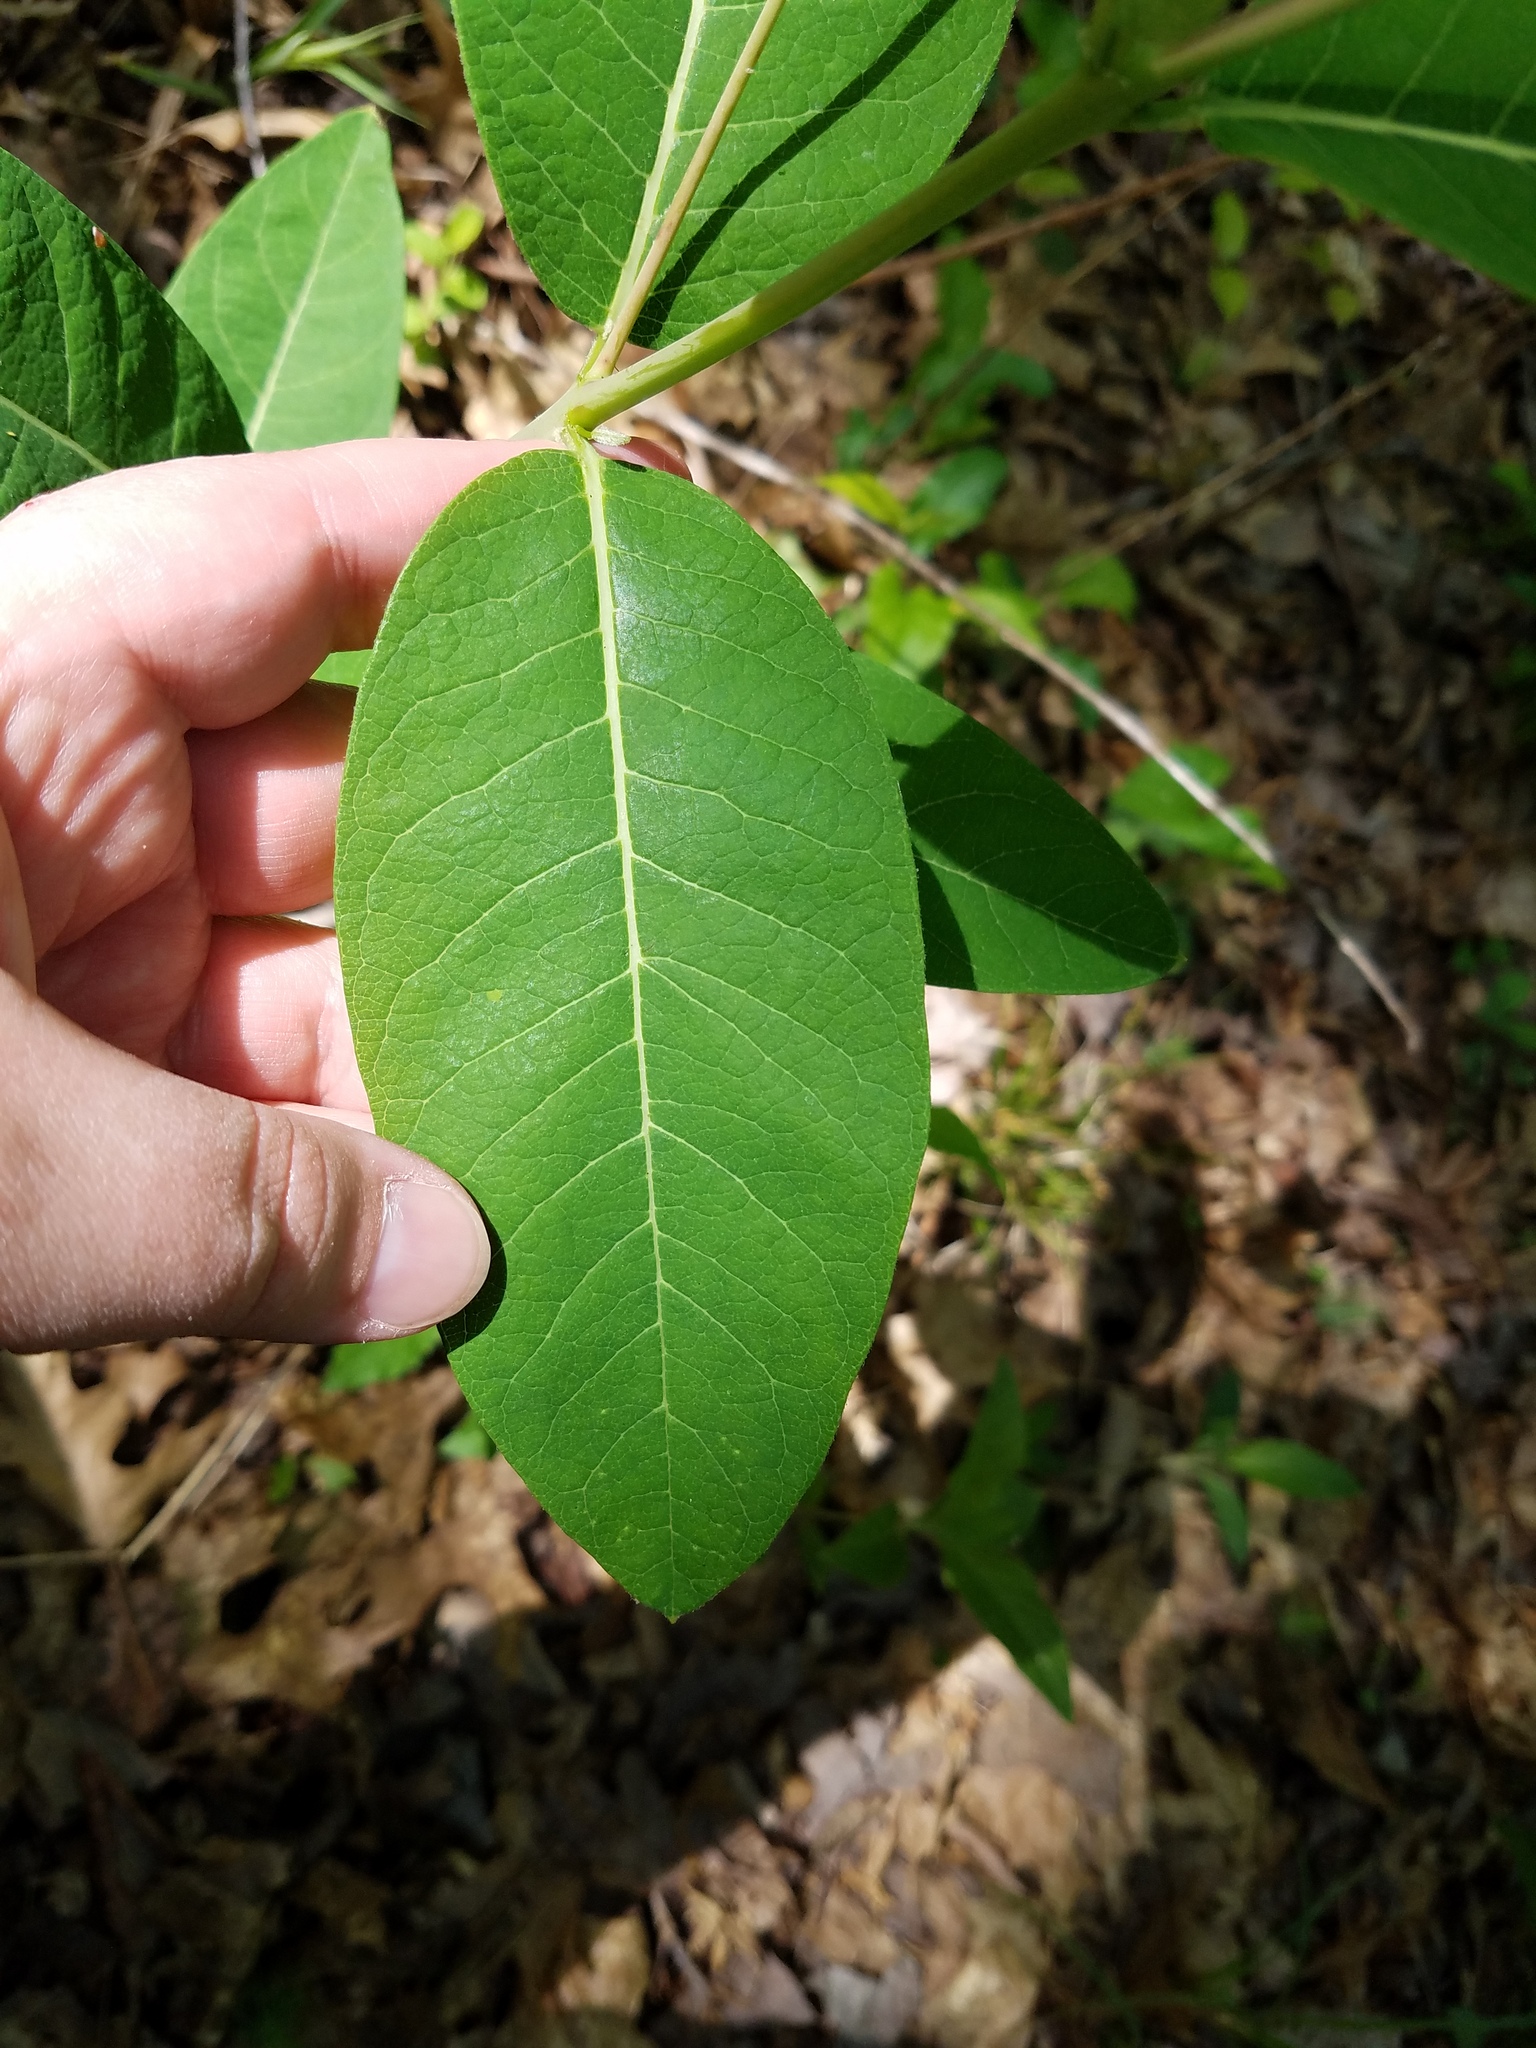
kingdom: Plantae
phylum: Tracheophyta
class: Magnoliopsida
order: Gentianales
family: Apocynaceae
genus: Apocynum
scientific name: Apocynum cannabinum
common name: Hemp dogbane
